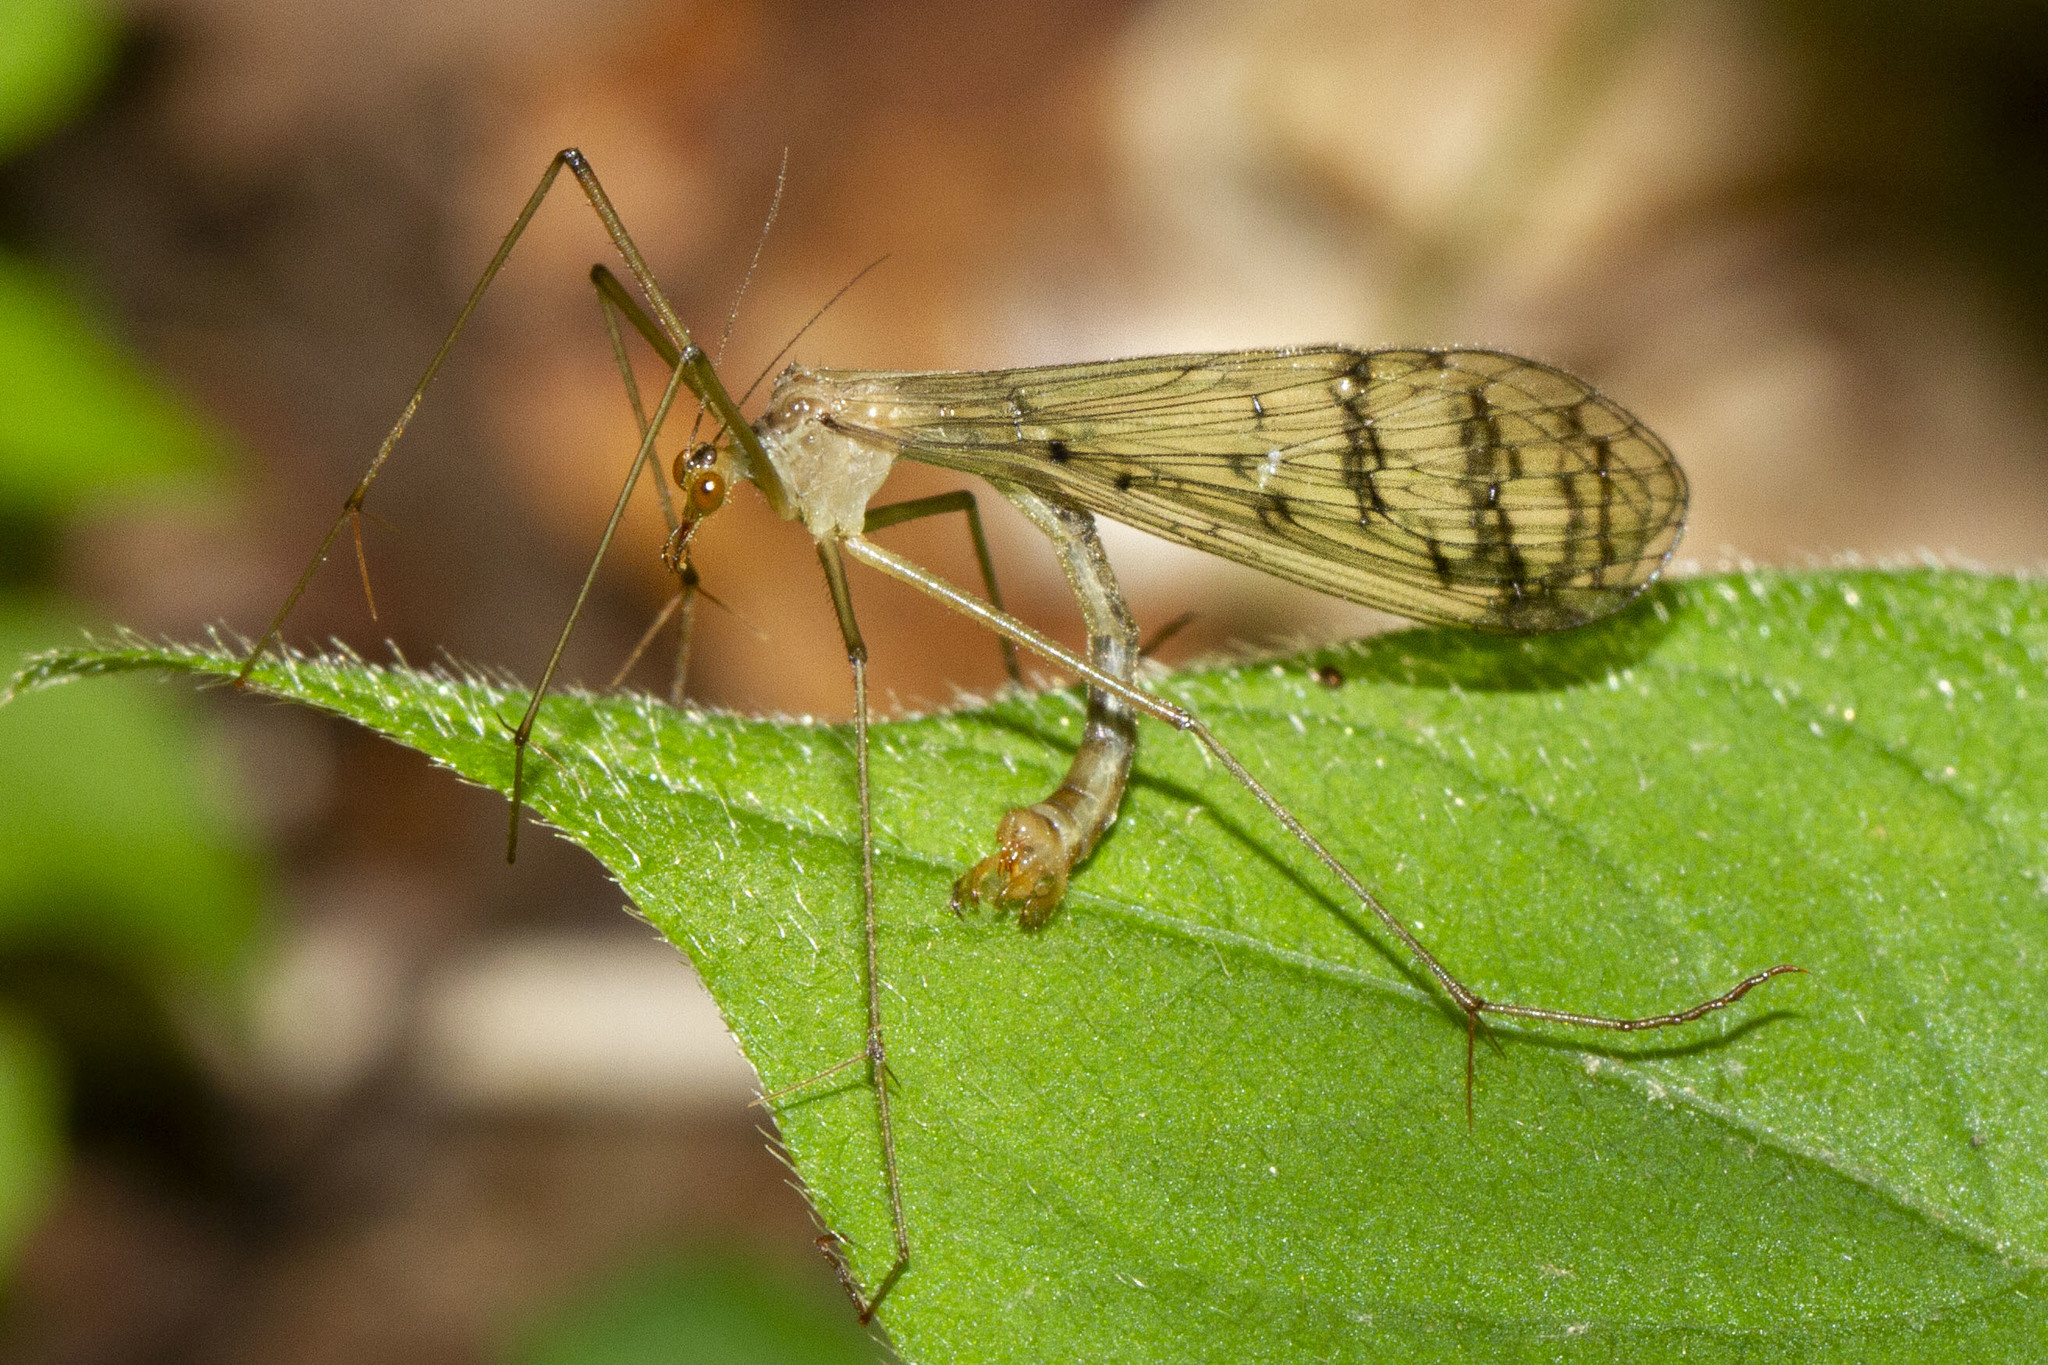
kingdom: Animalia
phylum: Arthropoda
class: Insecta
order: Mecoptera
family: Bittacidae
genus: Bittacus
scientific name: Bittacus strigosus
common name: Thin hangingfly
